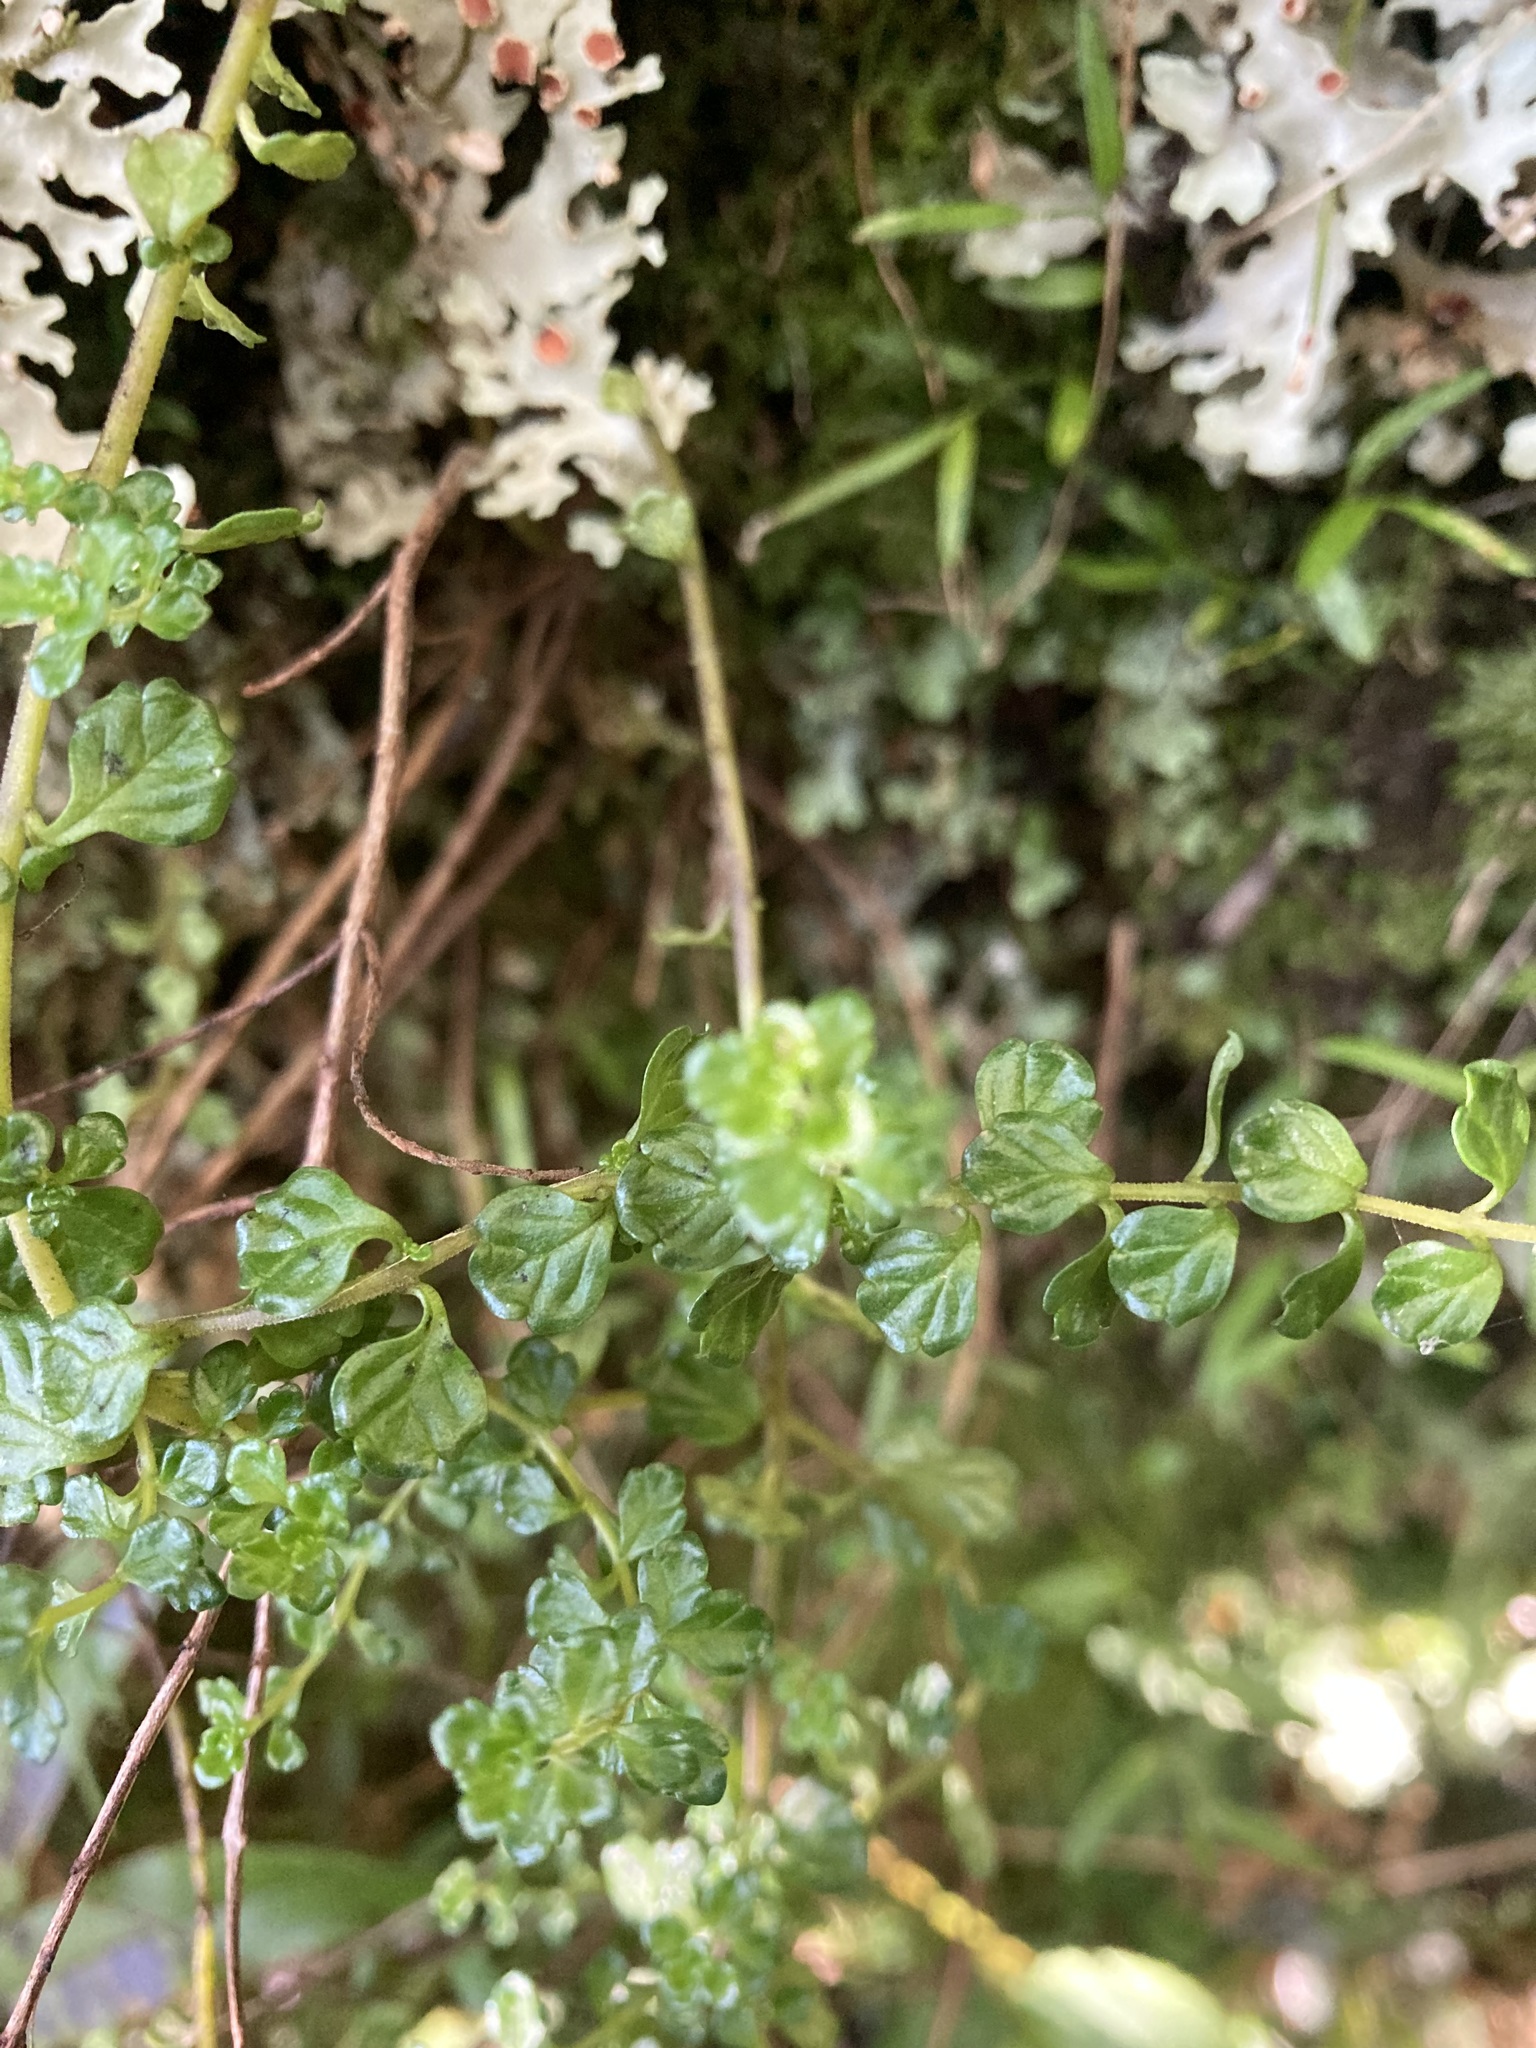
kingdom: Plantae
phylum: Tracheophyta
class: Magnoliopsida
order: Lamiales
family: Orobanchaceae
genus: Euphrasia
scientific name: Euphrasia cuneata
